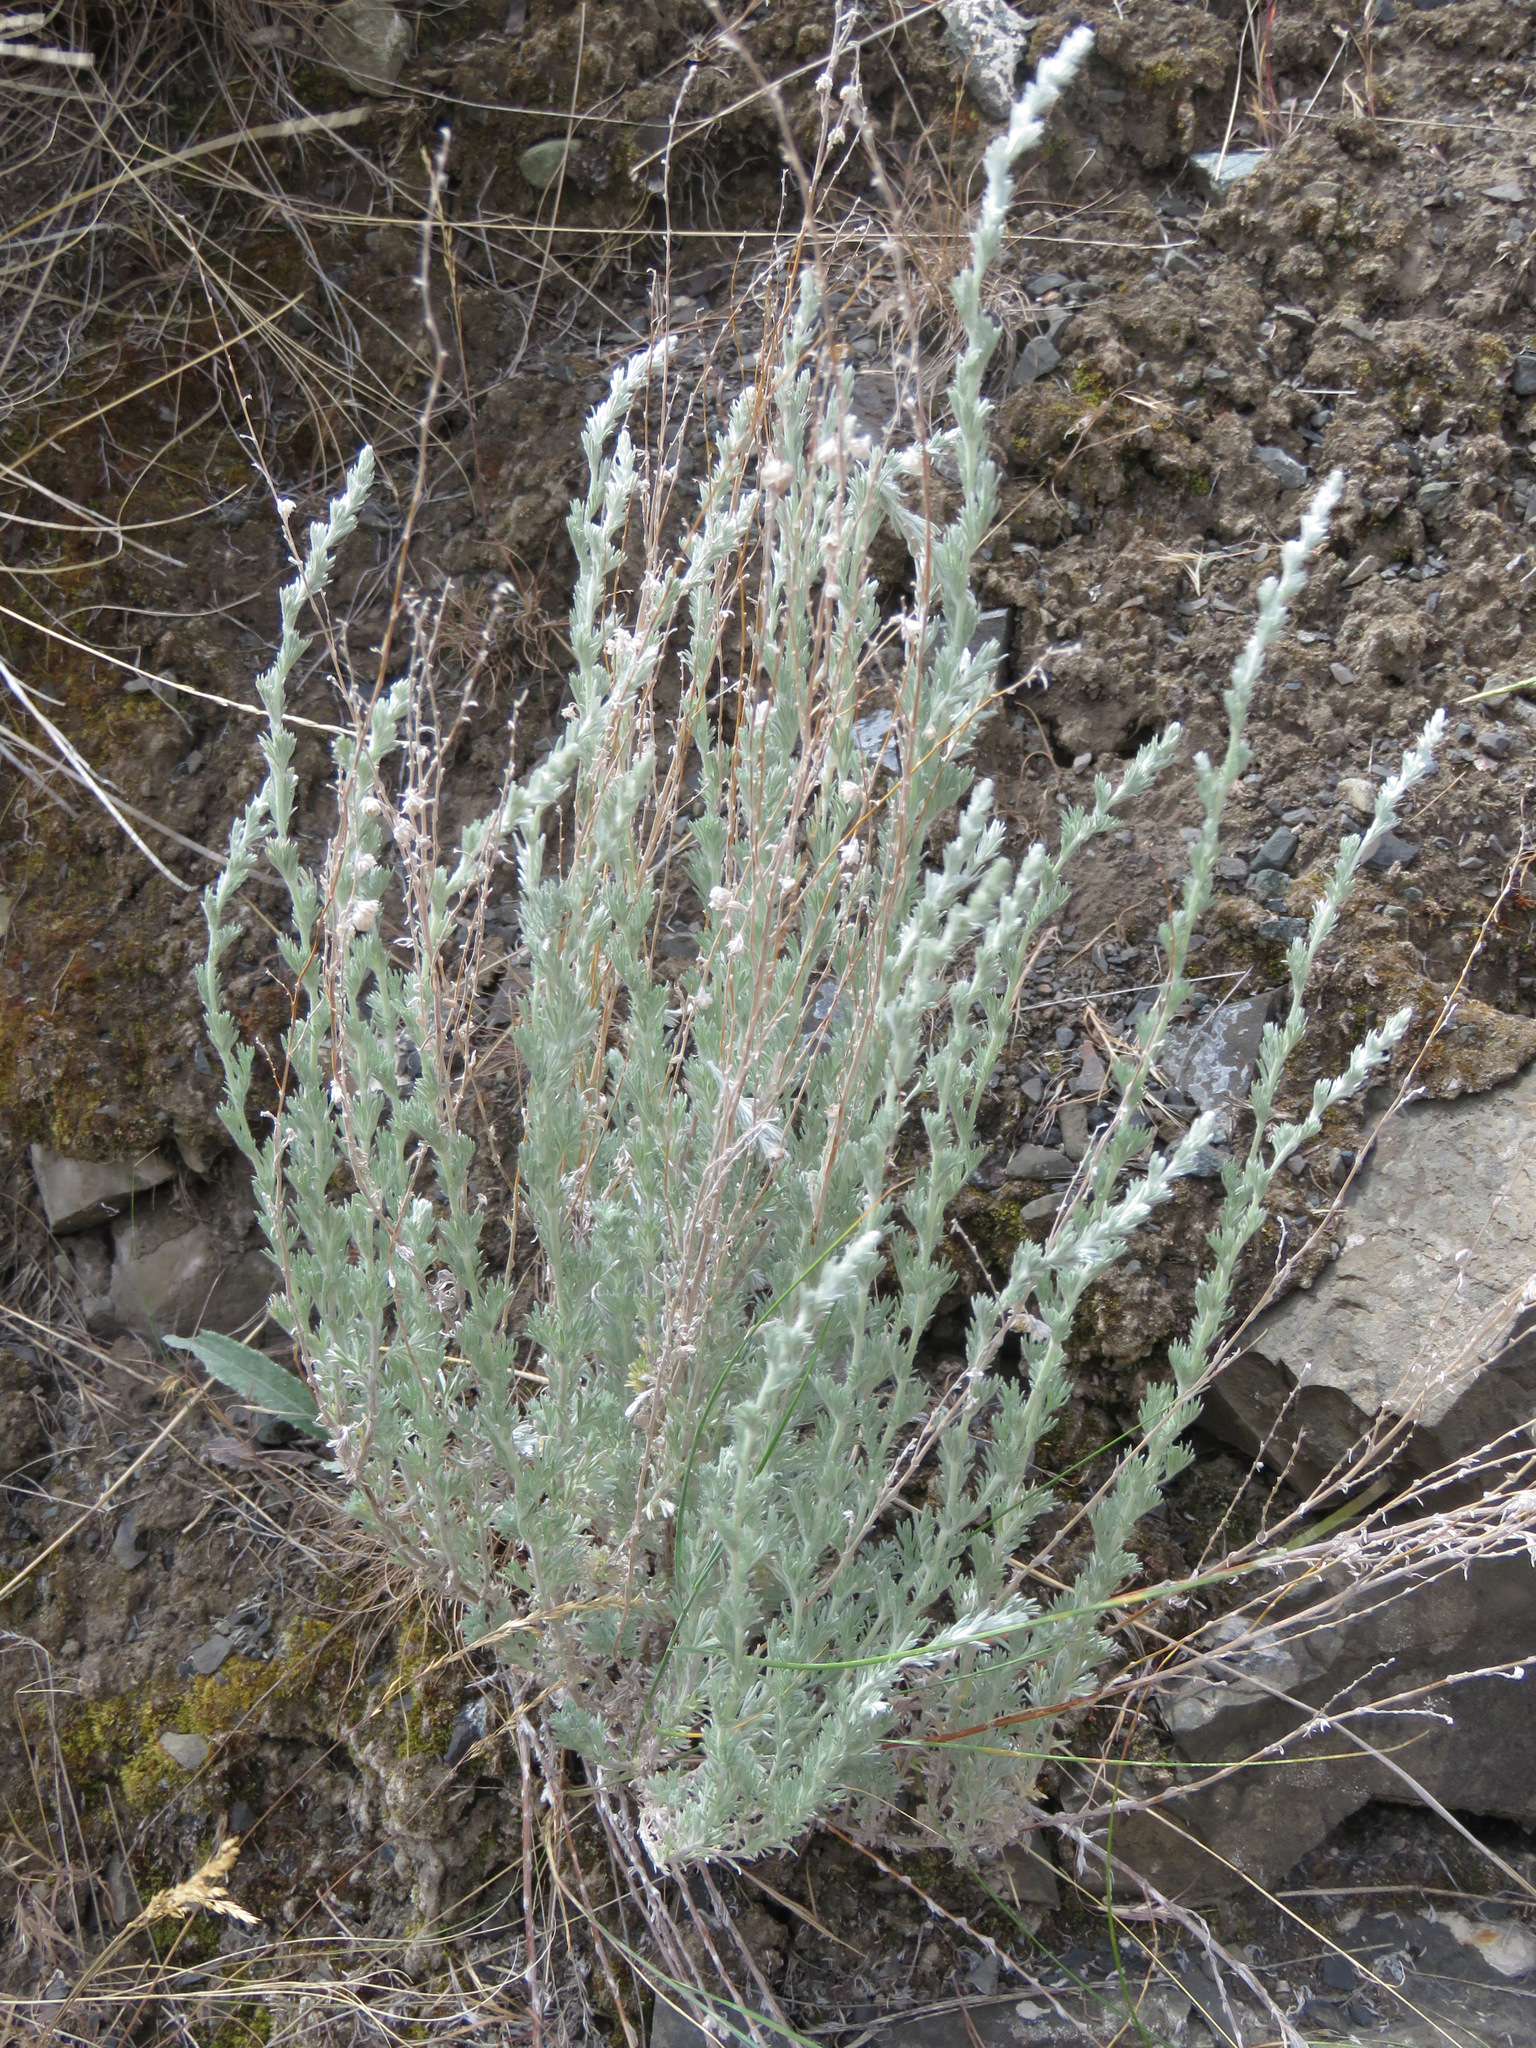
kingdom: Plantae
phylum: Tracheophyta
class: Magnoliopsida
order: Asterales
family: Asteraceae
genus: Artemisia
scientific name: Artemisia frigida
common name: Prairie sagewort
